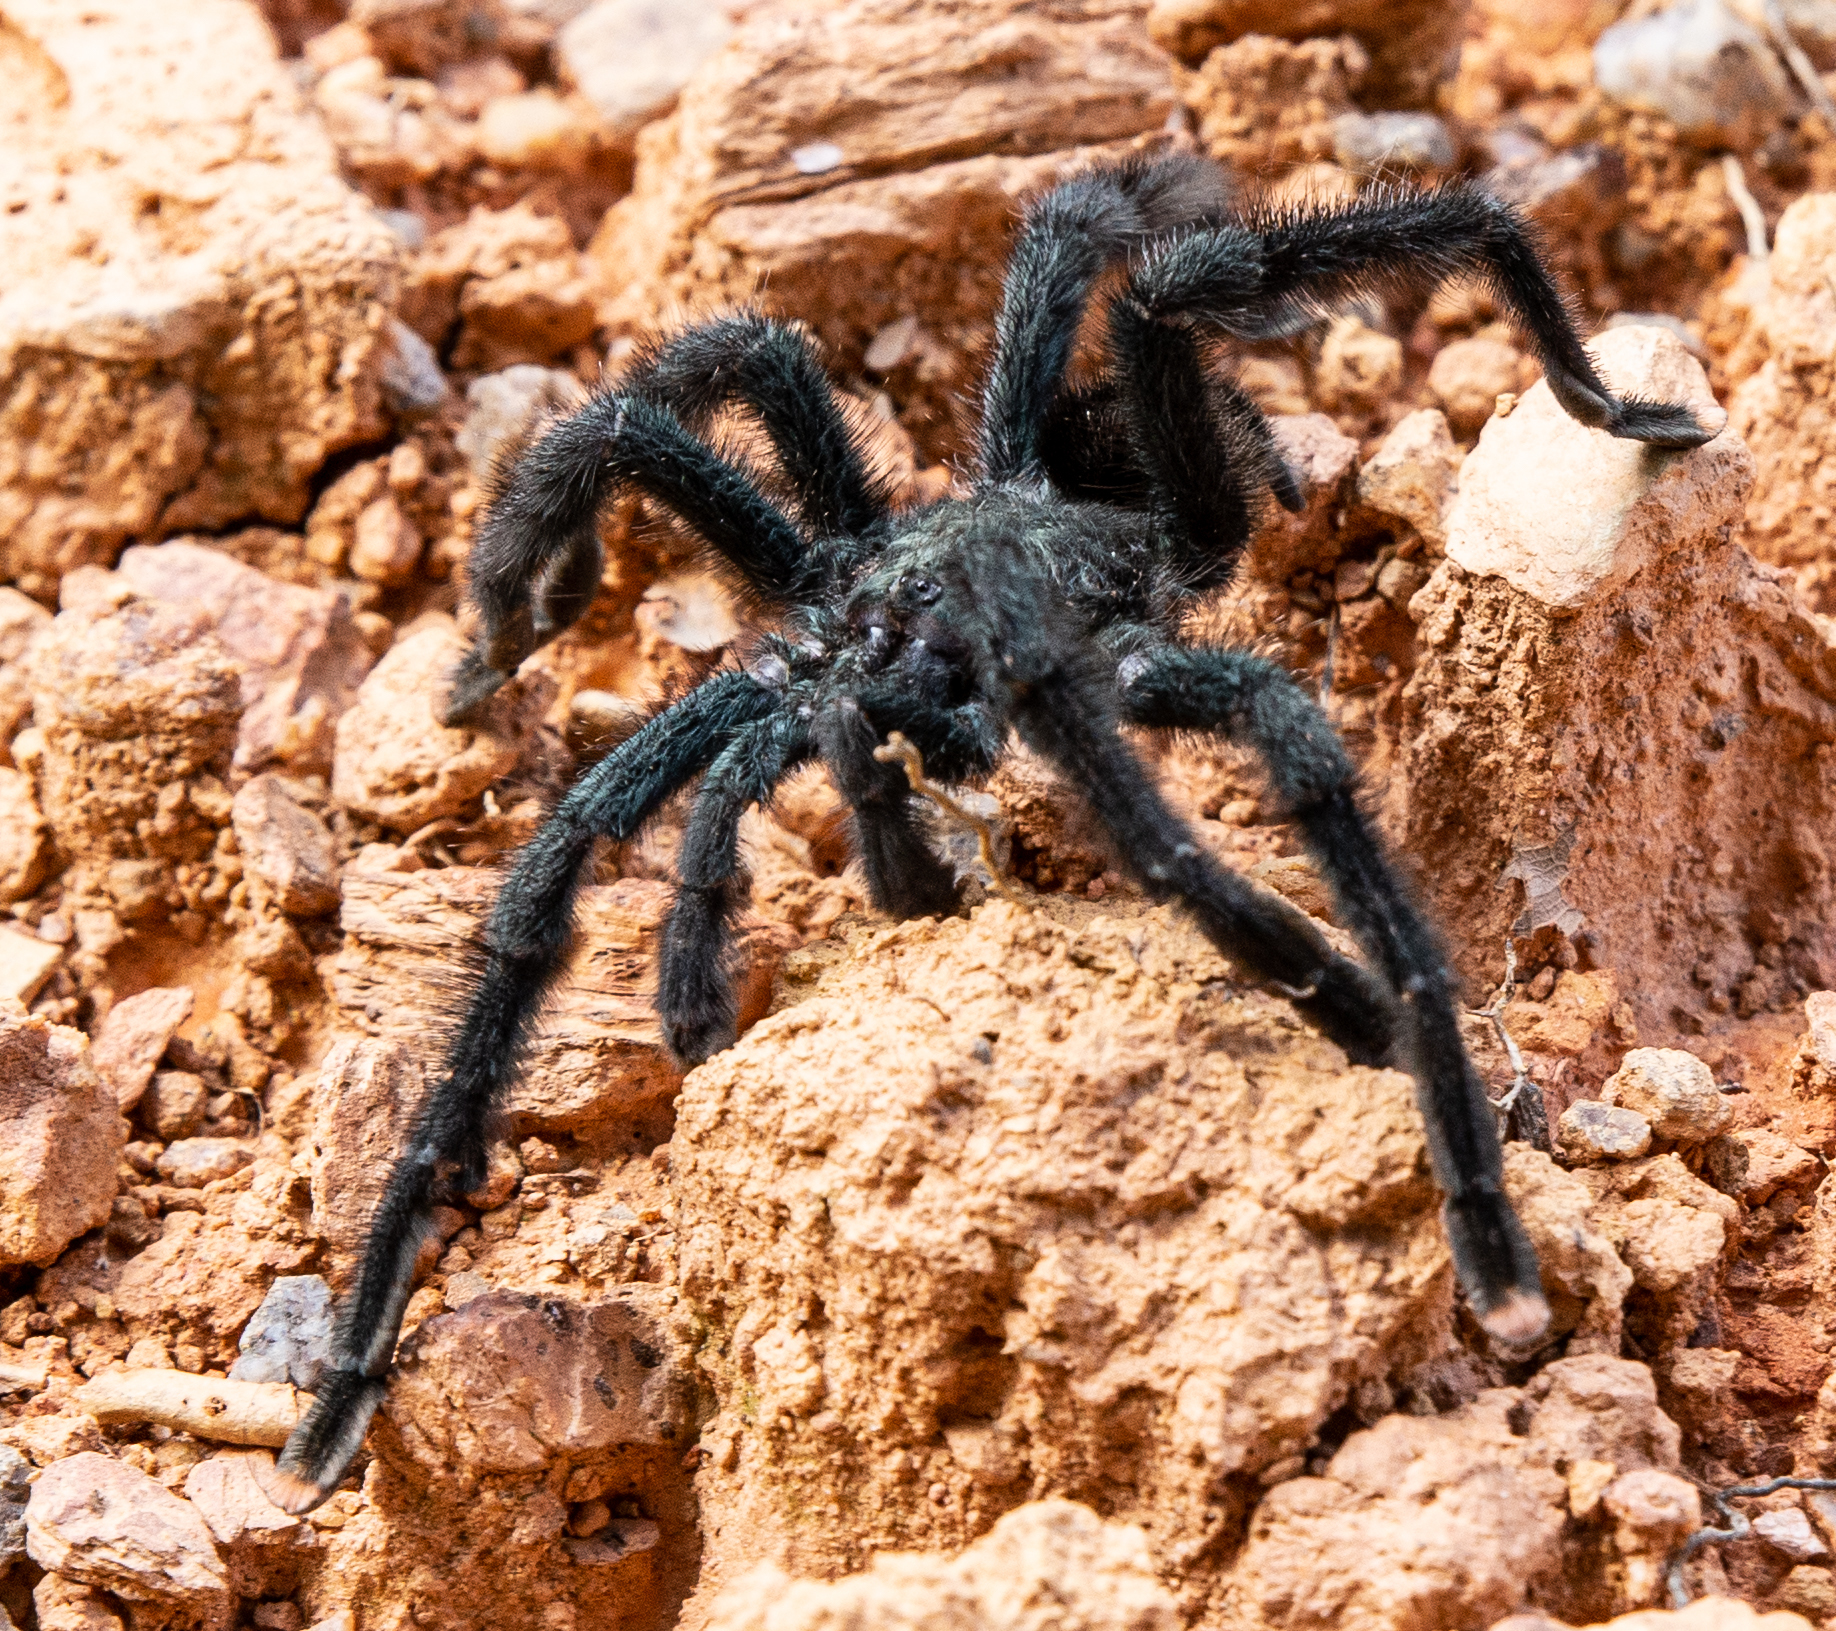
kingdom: Animalia
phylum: Arthropoda
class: Arachnida
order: Araneae
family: Theraphosidae
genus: Avicularia
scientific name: Avicularia avicularia
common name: Tarantula spiders
